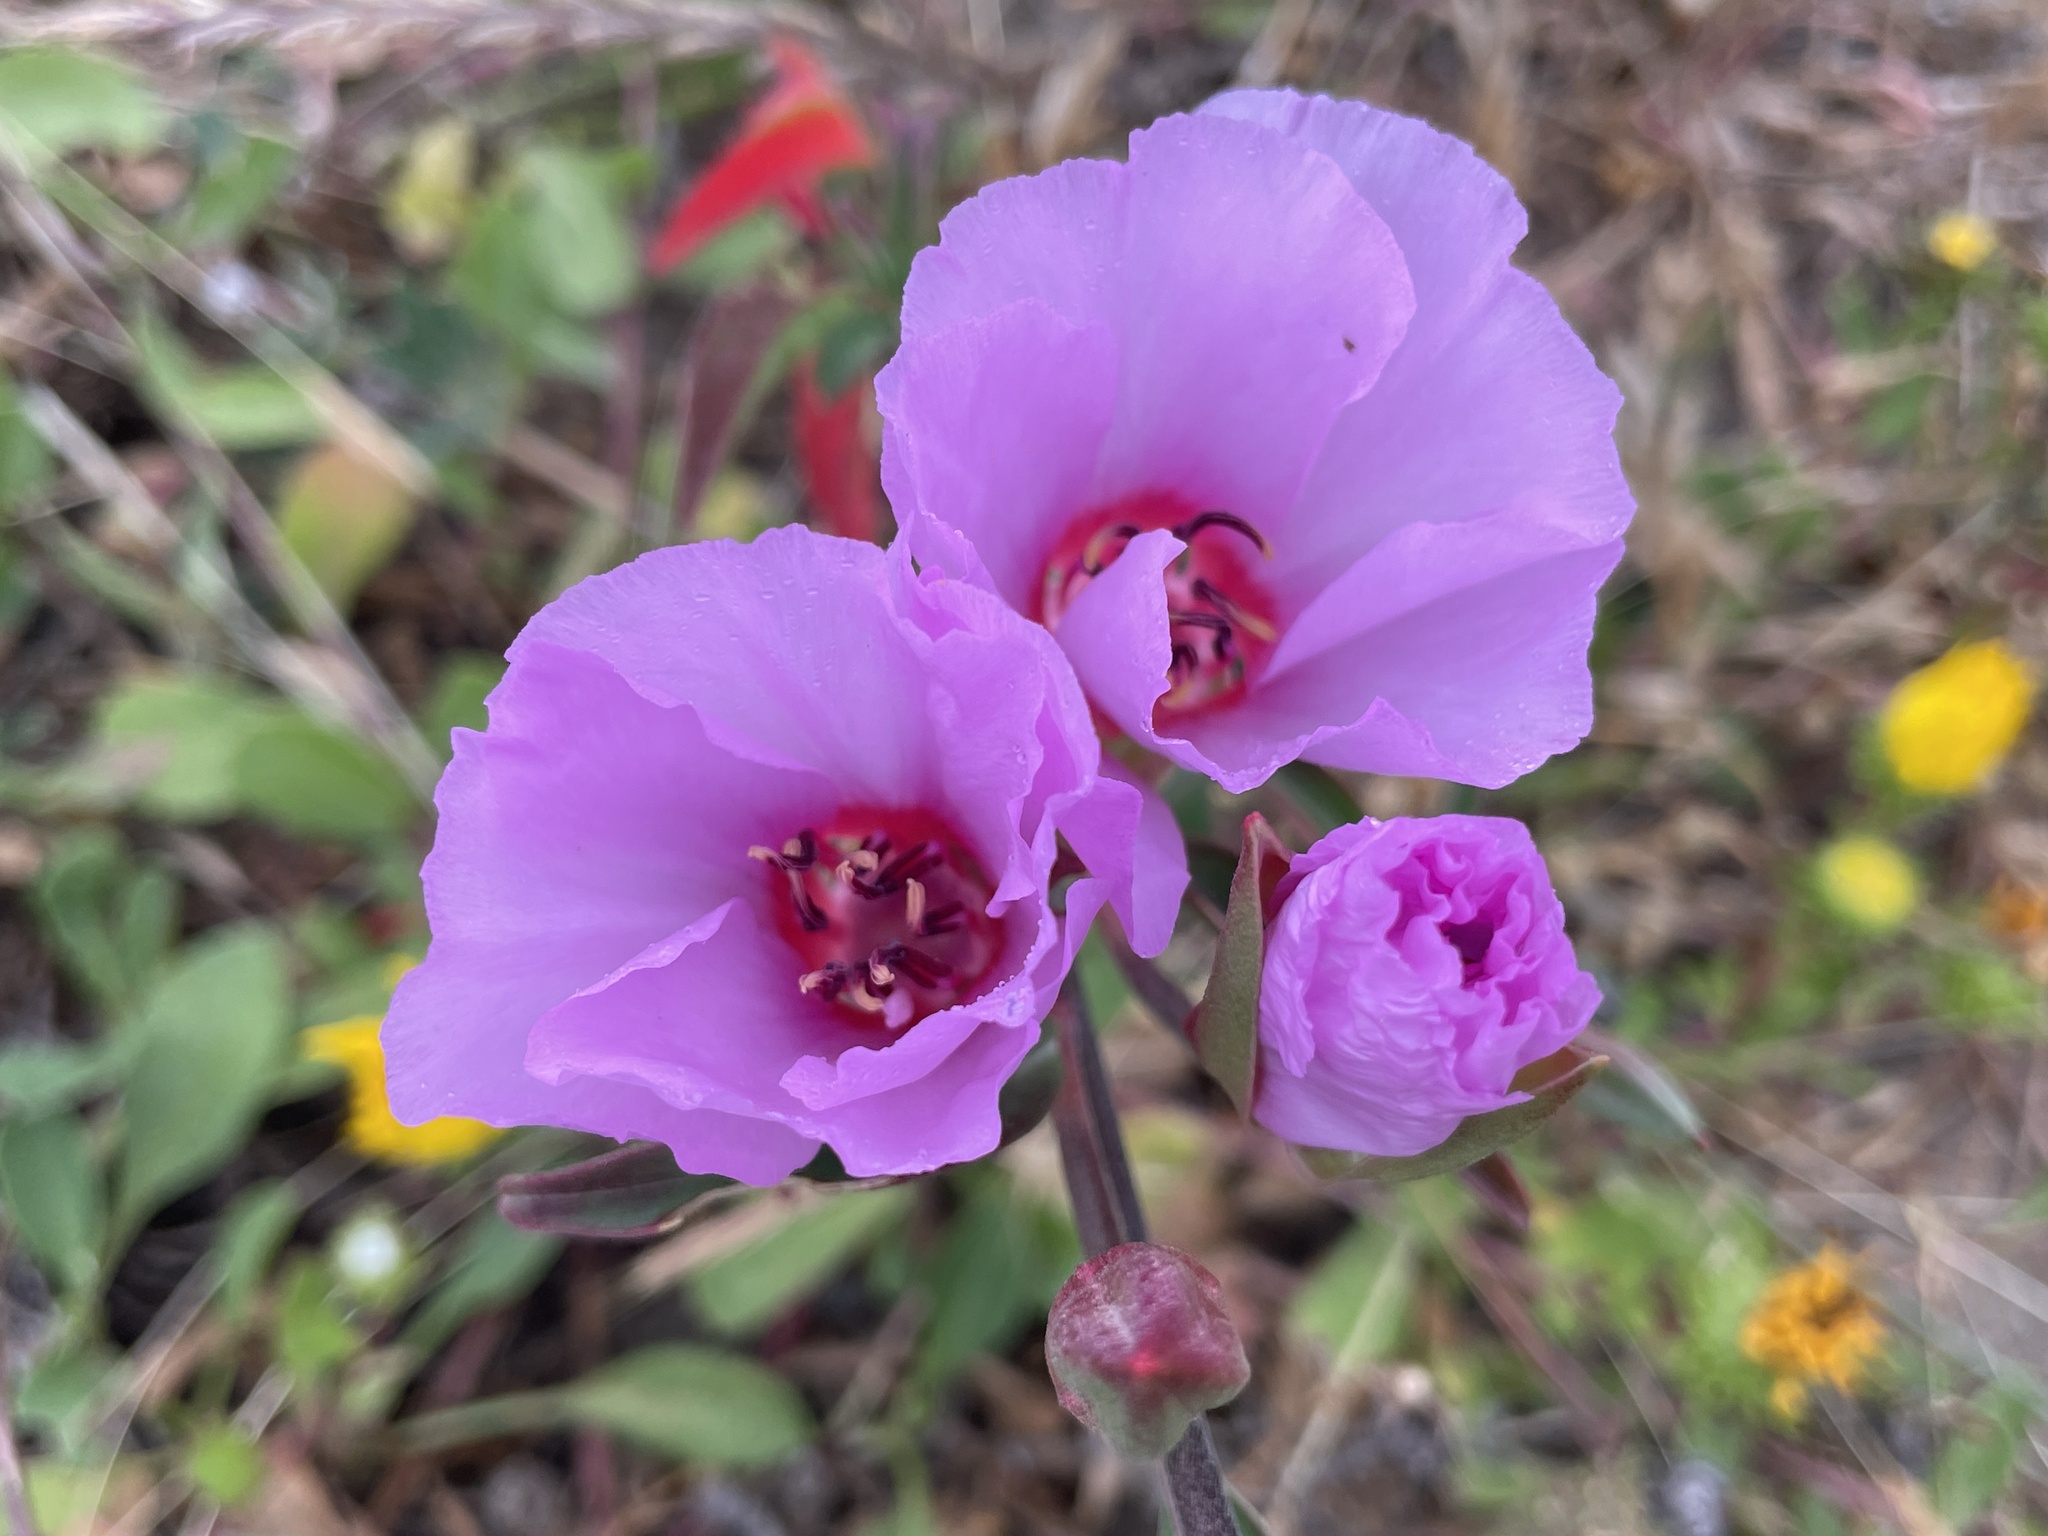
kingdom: Plantae
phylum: Tracheophyta
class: Magnoliopsida
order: Myrtales
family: Onagraceae
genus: Clarkia
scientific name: Clarkia rubicunda
